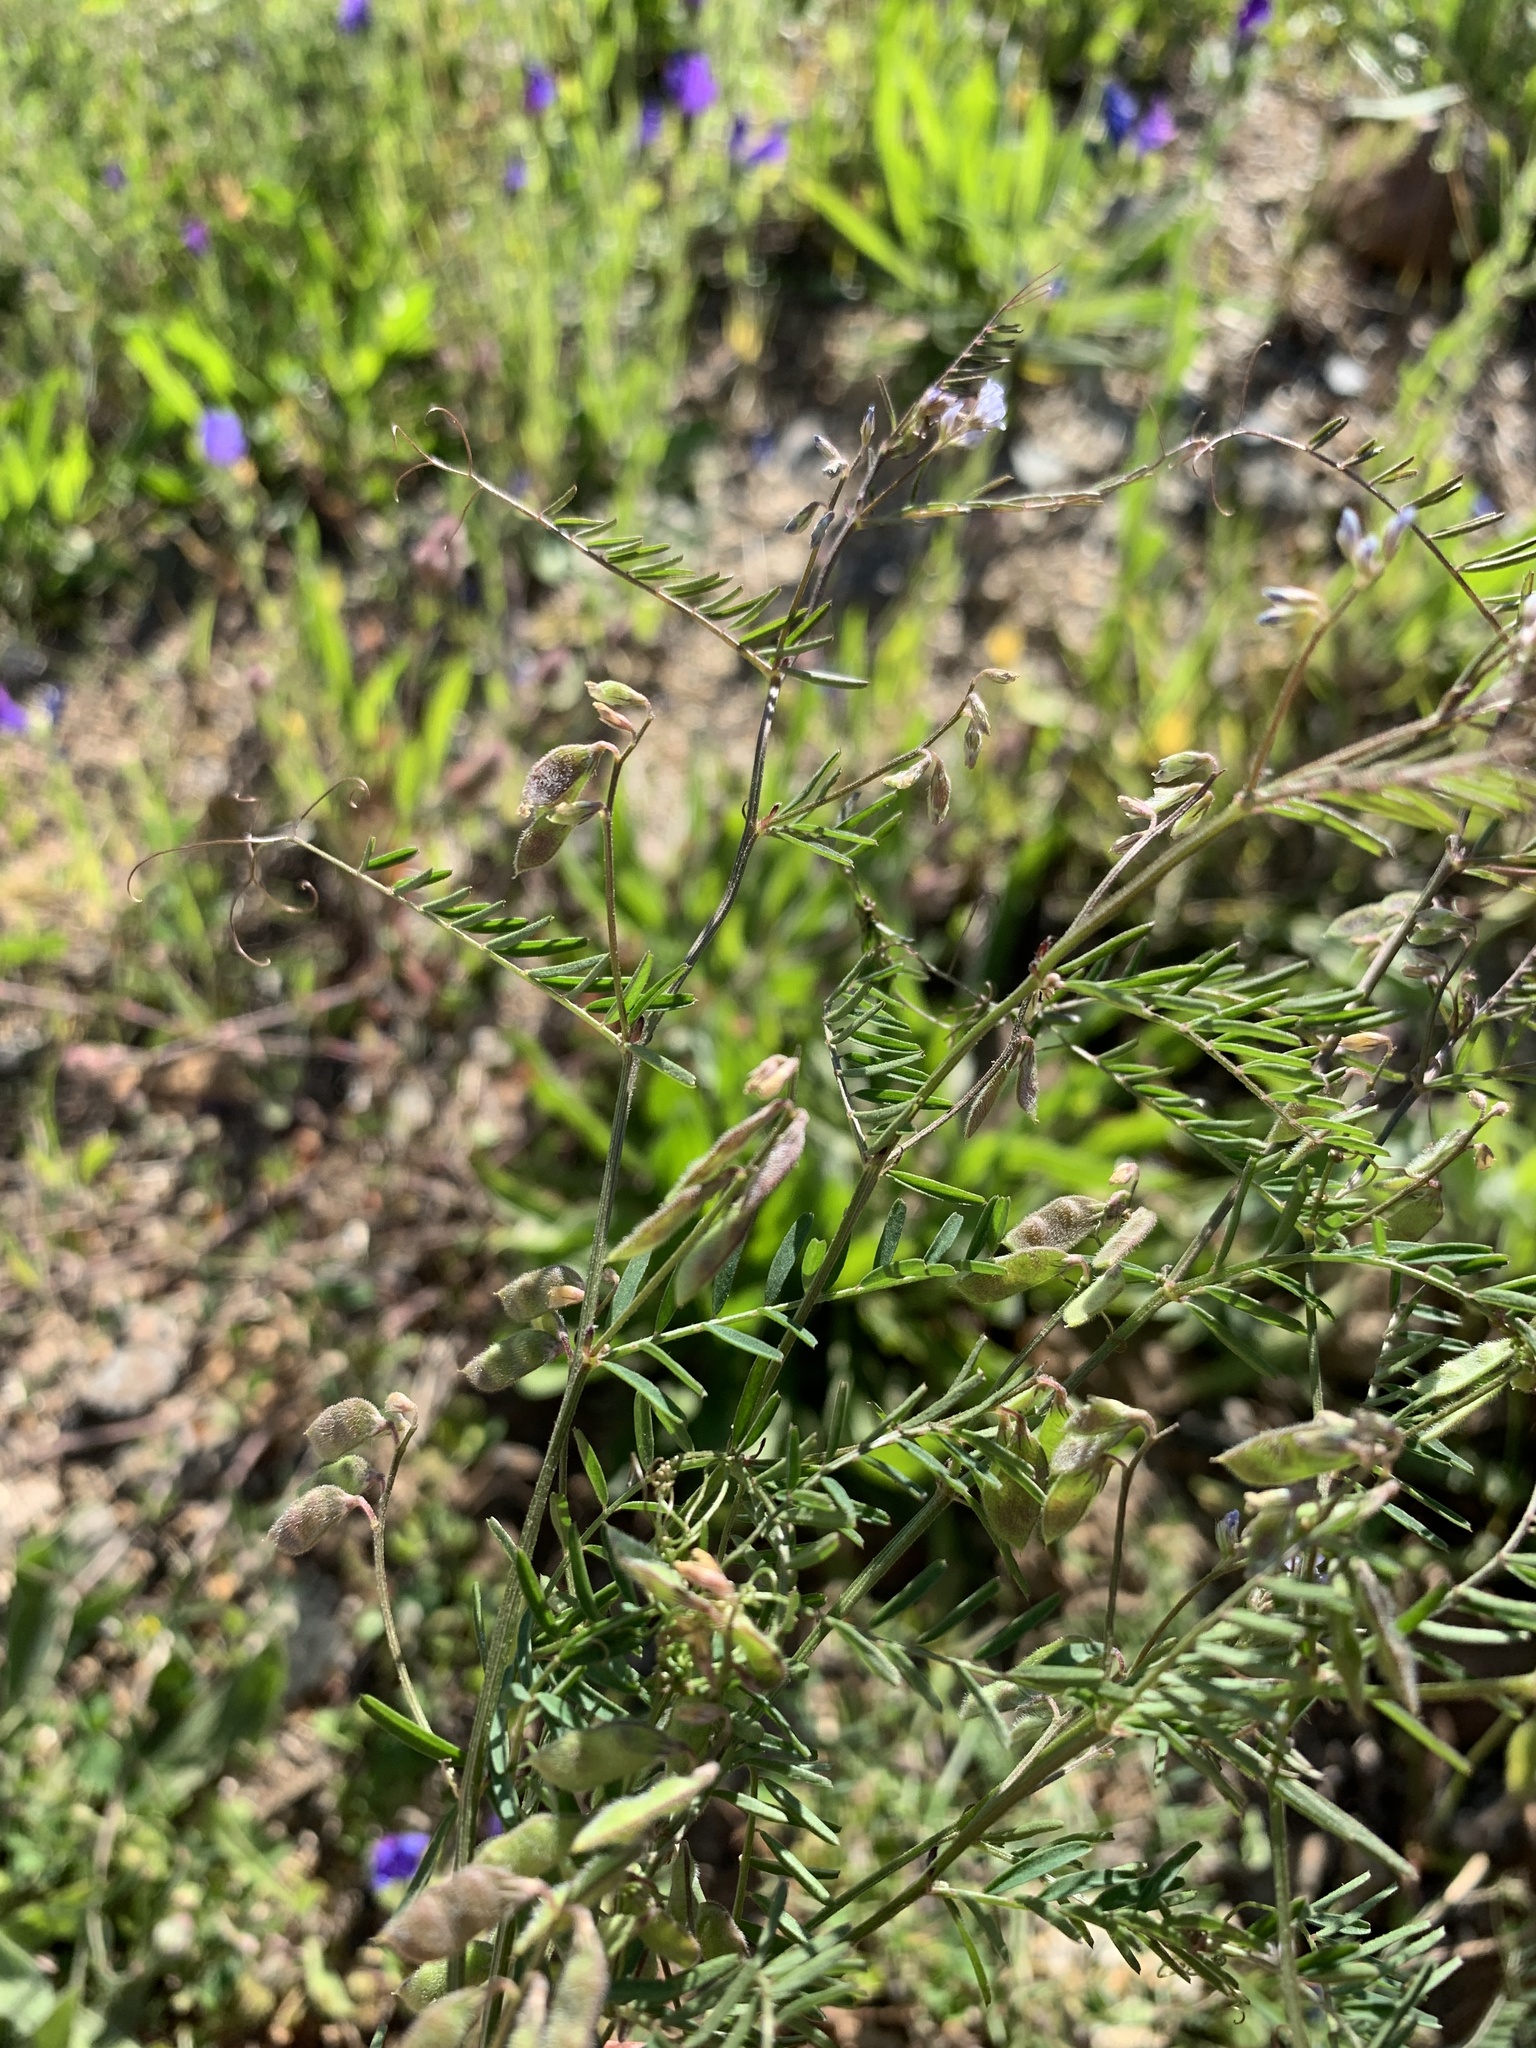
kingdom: Plantae
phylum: Tracheophyta
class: Magnoliopsida
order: Fabales
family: Fabaceae
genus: Vicia
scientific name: Vicia hirsuta
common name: Tiny vetch
